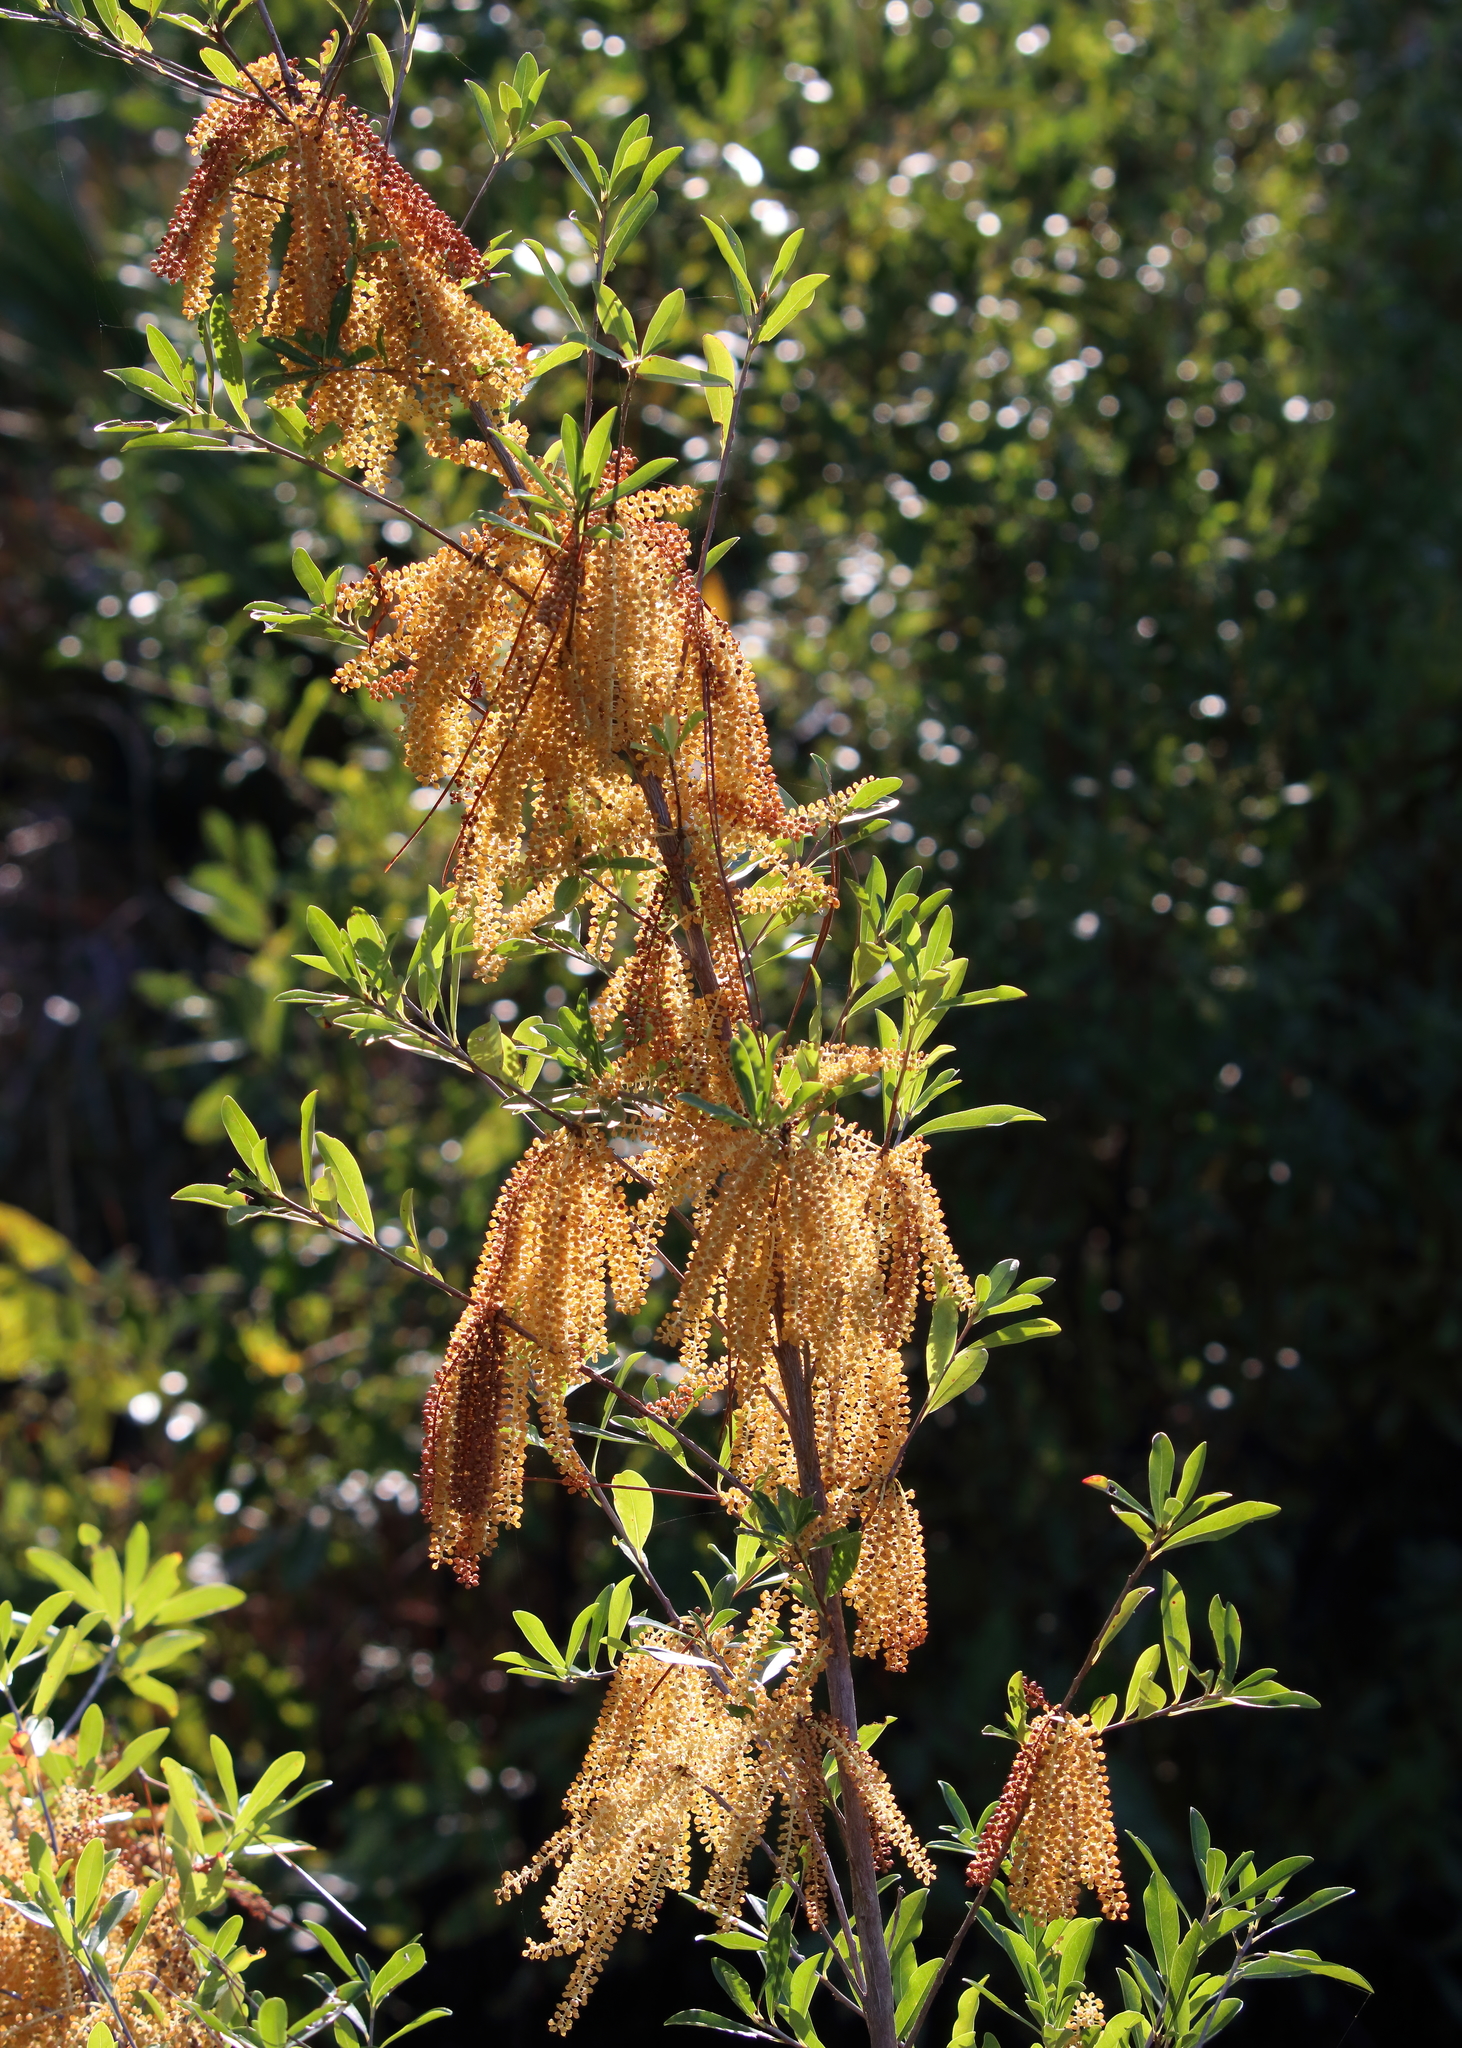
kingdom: Plantae
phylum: Tracheophyta
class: Magnoliopsida
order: Ericales
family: Cyrillaceae
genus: Cyrilla
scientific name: Cyrilla racemiflora
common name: Black titi
